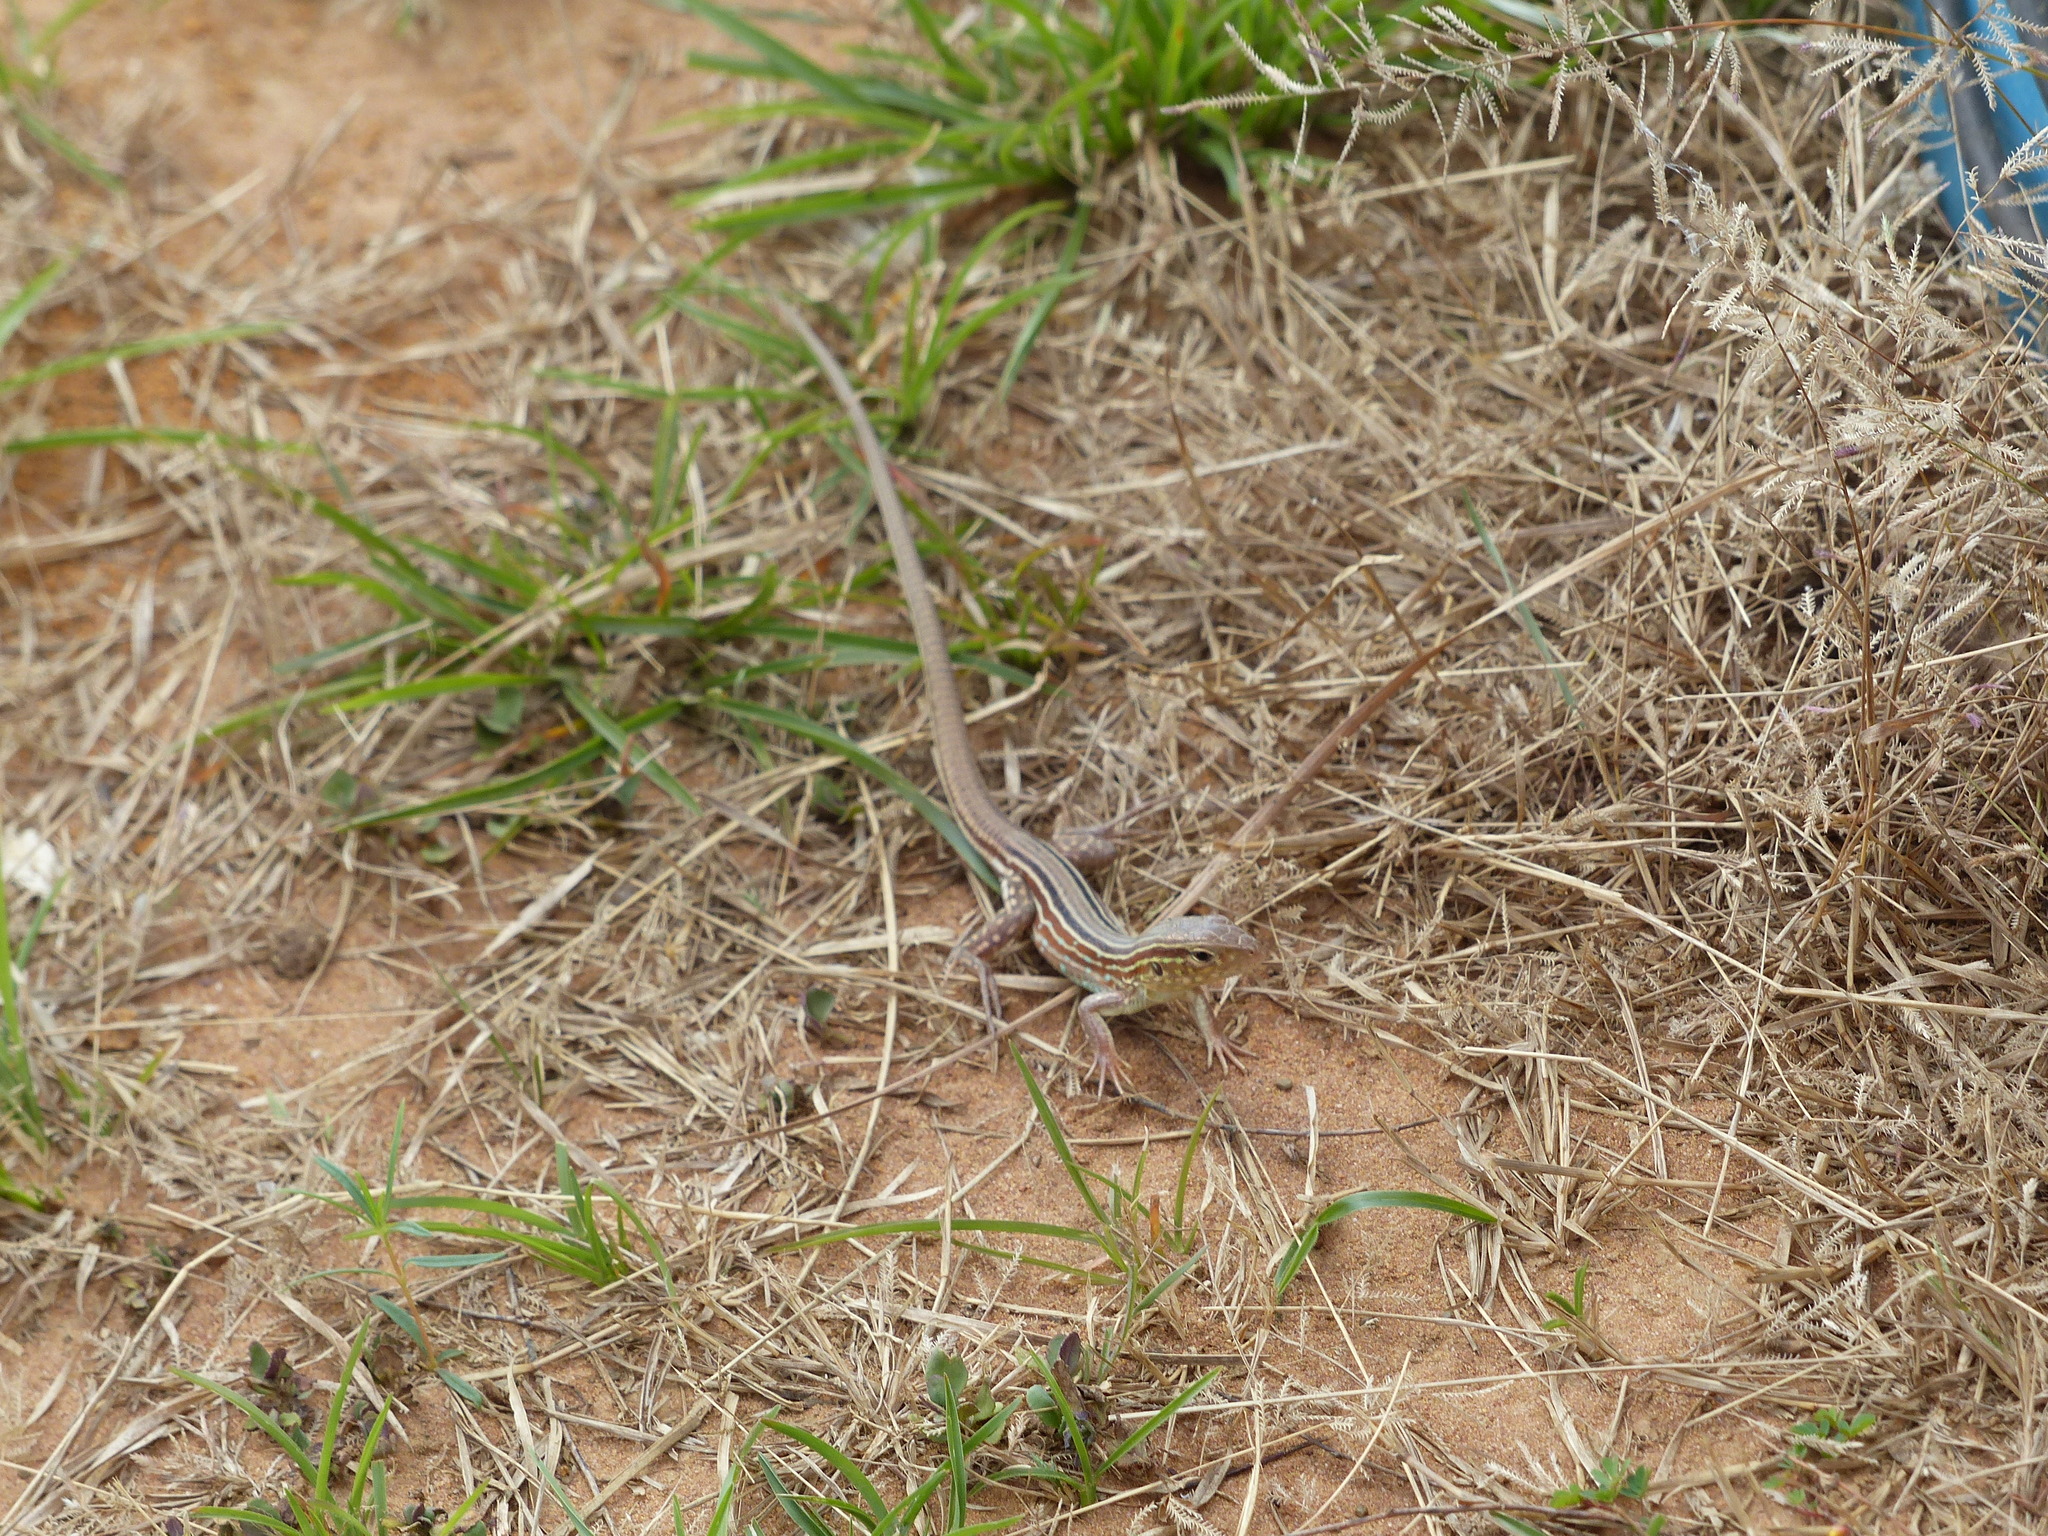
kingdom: Animalia
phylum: Chordata
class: Squamata
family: Teiidae
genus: Cnemidophorus
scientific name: Cnemidophorus gramivagus
